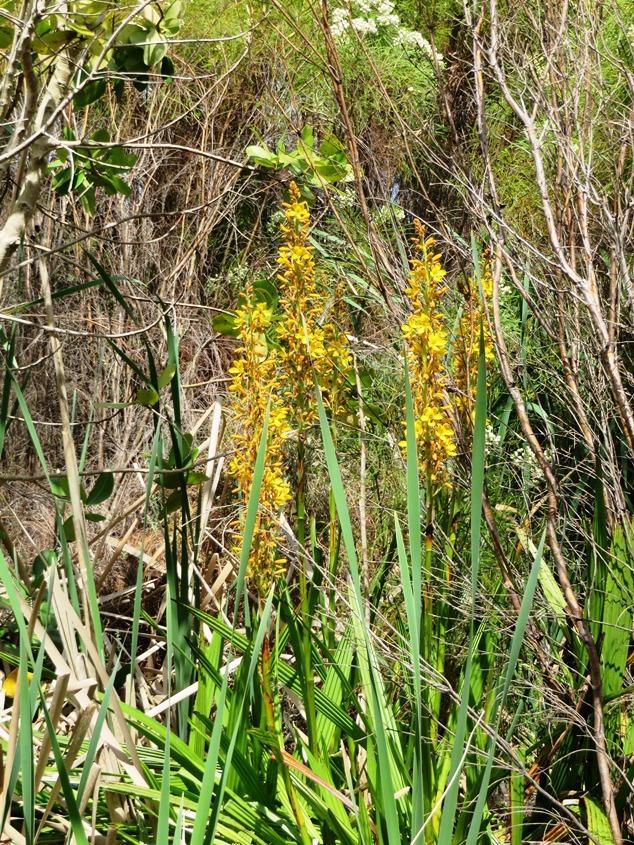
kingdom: Plantae
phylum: Tracheophyta
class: Liliopsida
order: Commelinales
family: Haemodoraceae
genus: Wachendorfia
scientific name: Wachendorfia thyrsiflora
